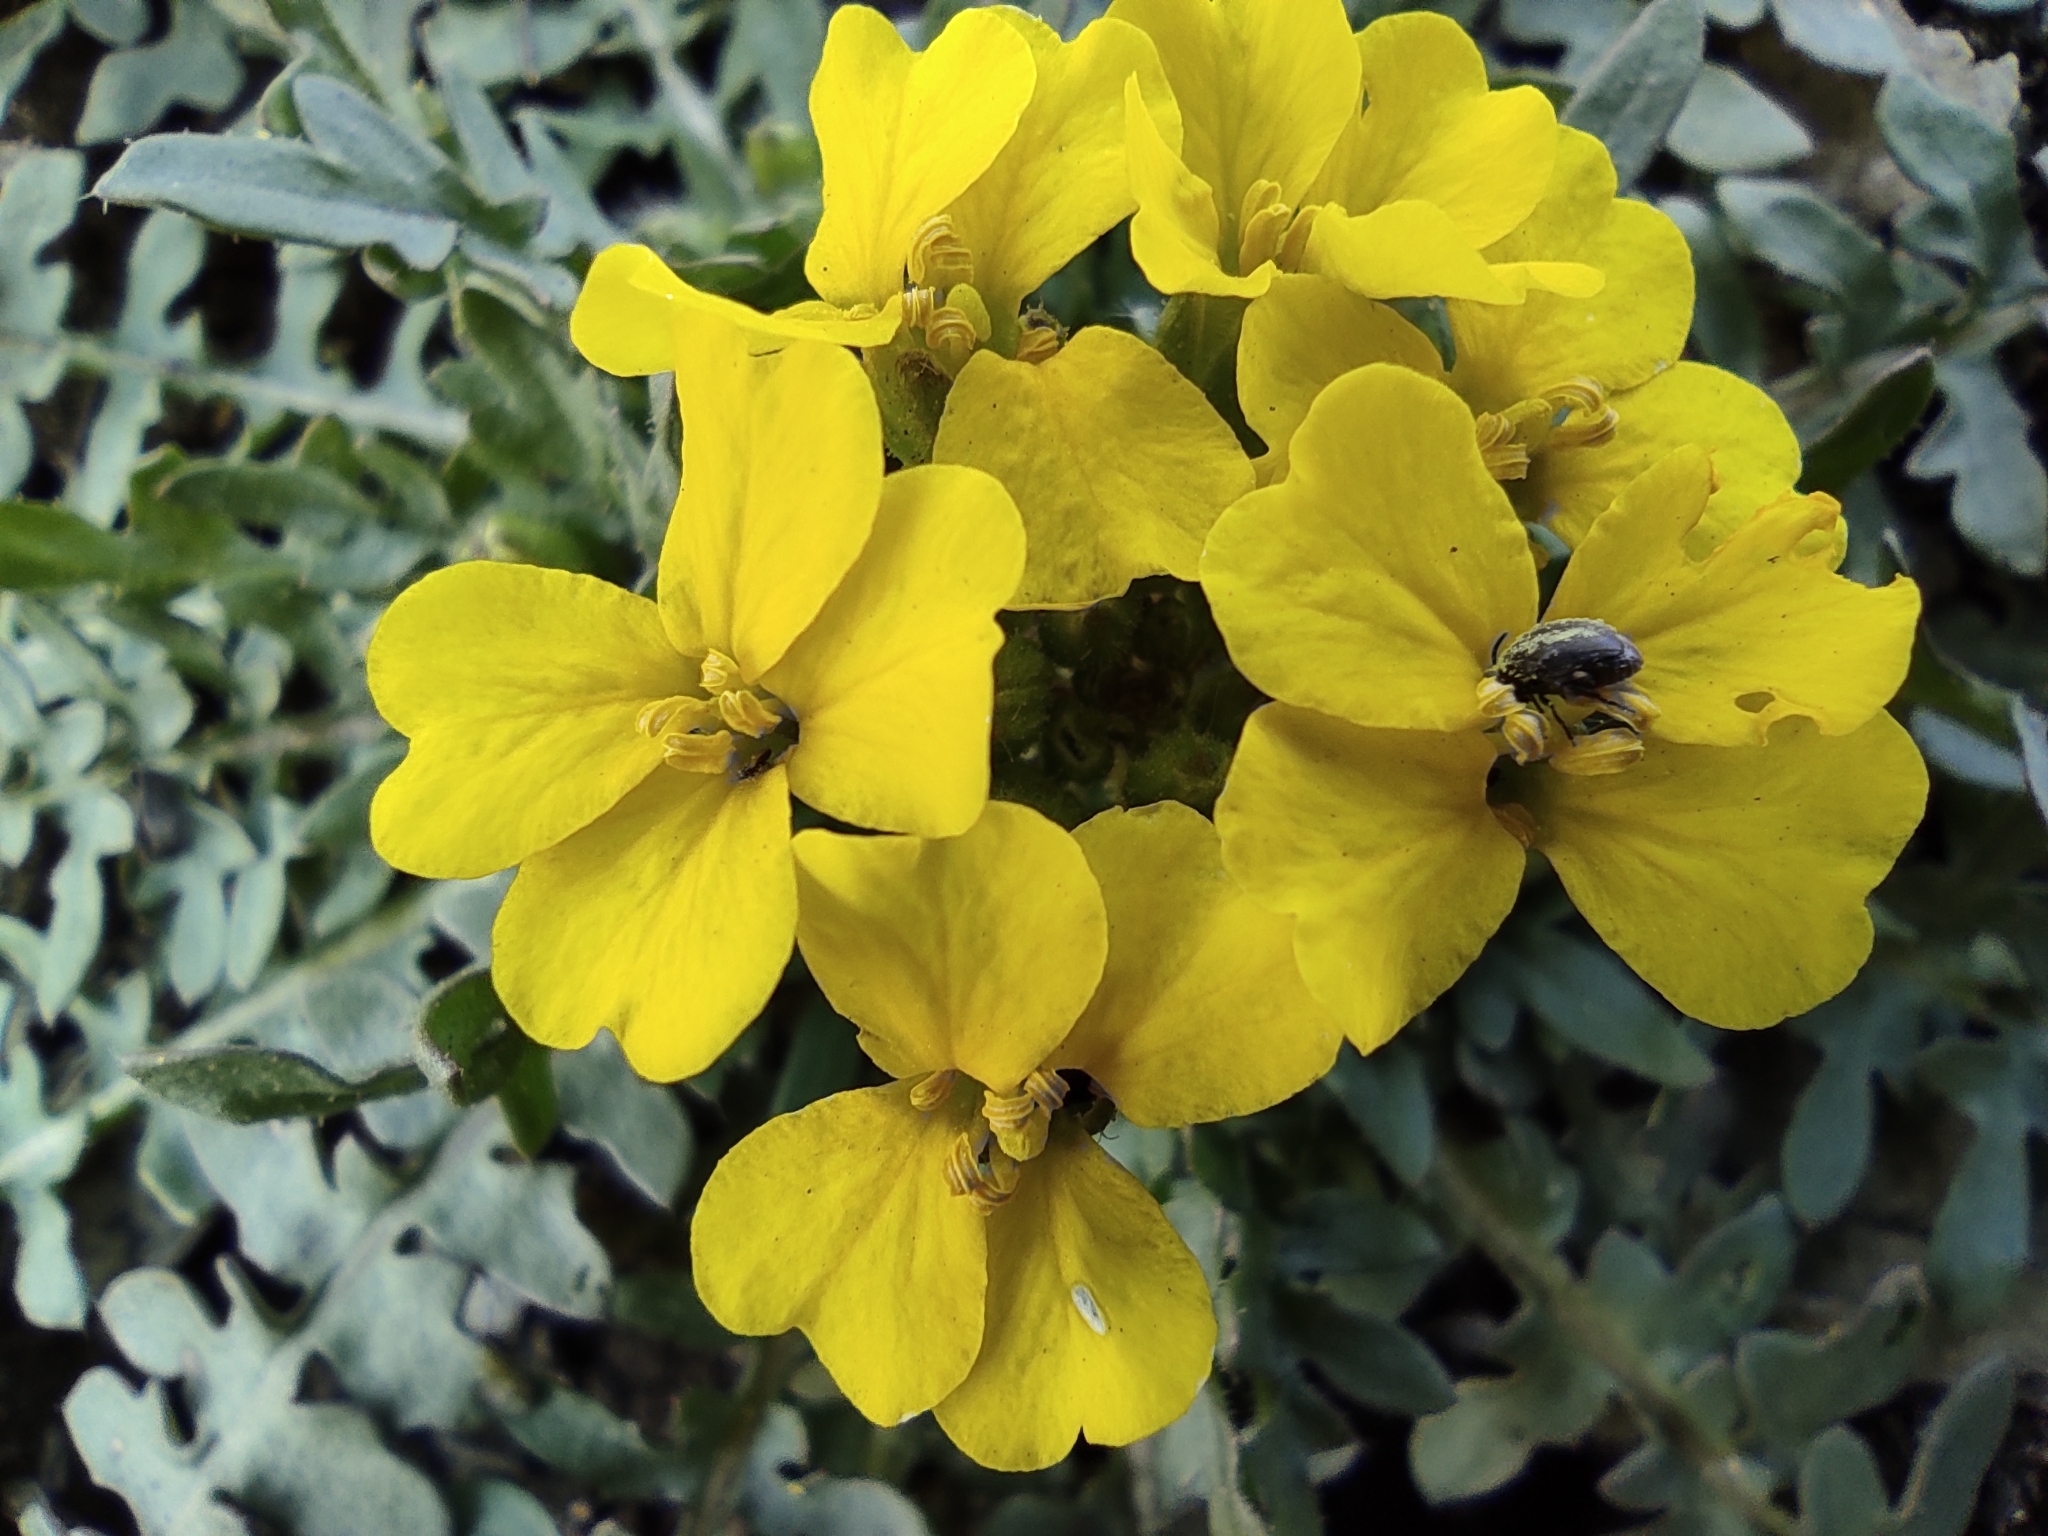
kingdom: Plantae
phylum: Tracheophyta
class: Magnoliopsida
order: Brassicales
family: Brassicaceae
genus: Chorispora
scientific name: Chorispora sibirica
